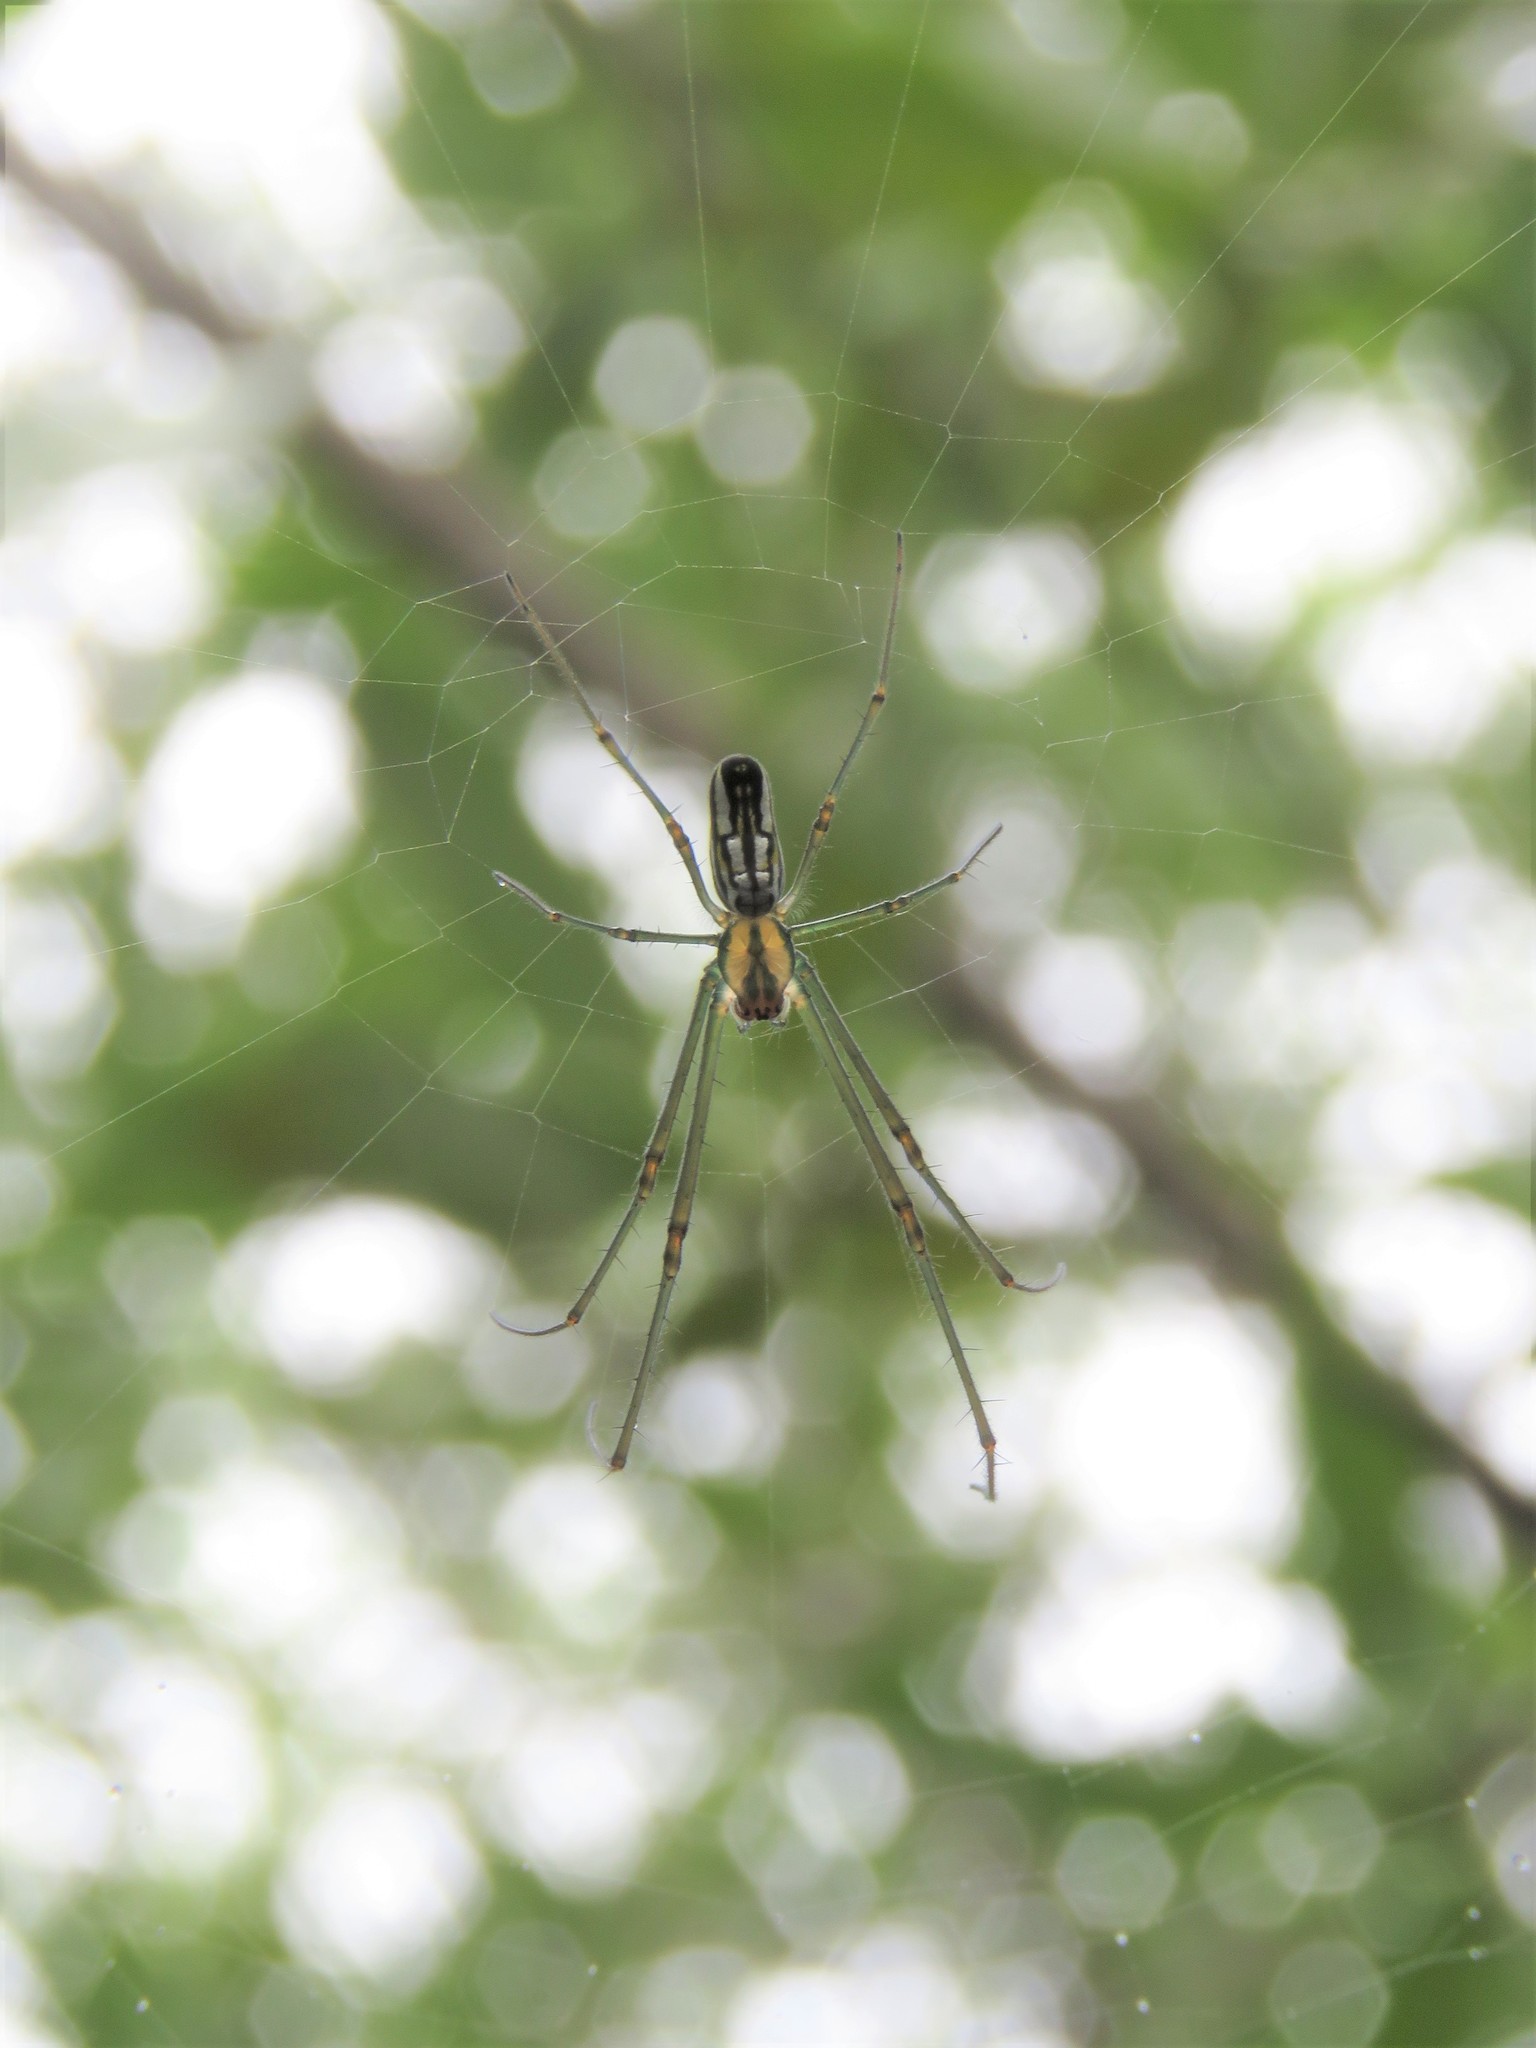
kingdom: Animalia
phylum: Arthropoda
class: Arachnida
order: Araneae
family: Tetragnathidae
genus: Leucauge
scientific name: Leucauge argyra
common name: Longjawed orb weavers
